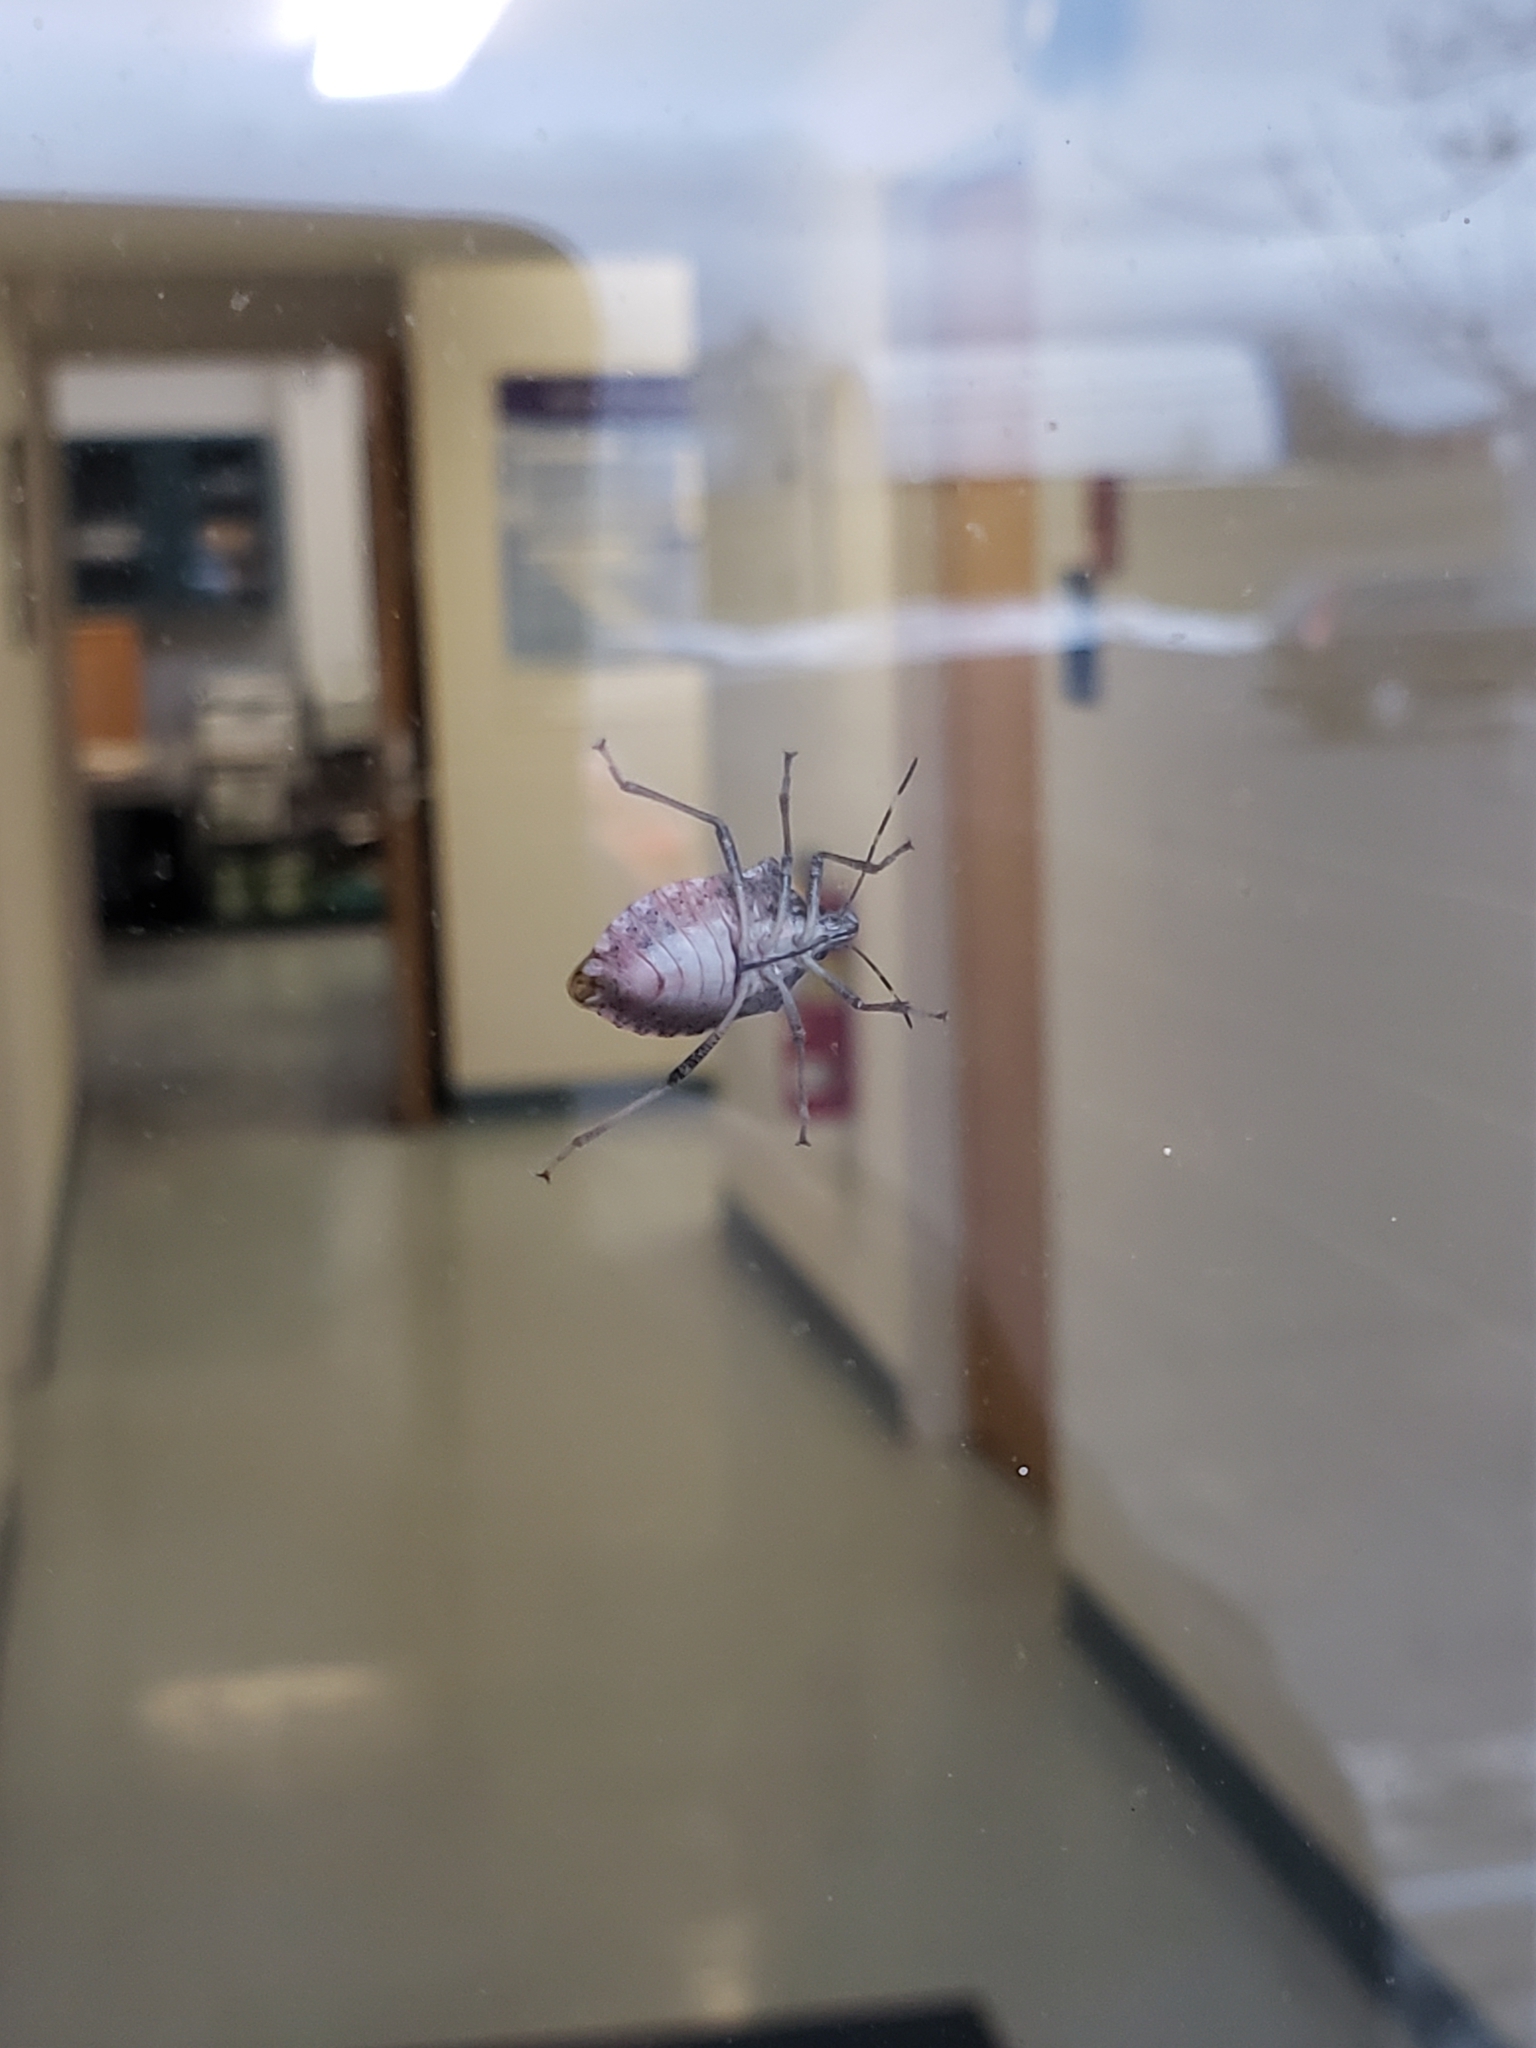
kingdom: Animalia
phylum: Arthropoda
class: Insecta
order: Hemiptera
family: Pentatomidae
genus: Halyomorpha
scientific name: Halyomorpha halys
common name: Brown marmorated stink bug
